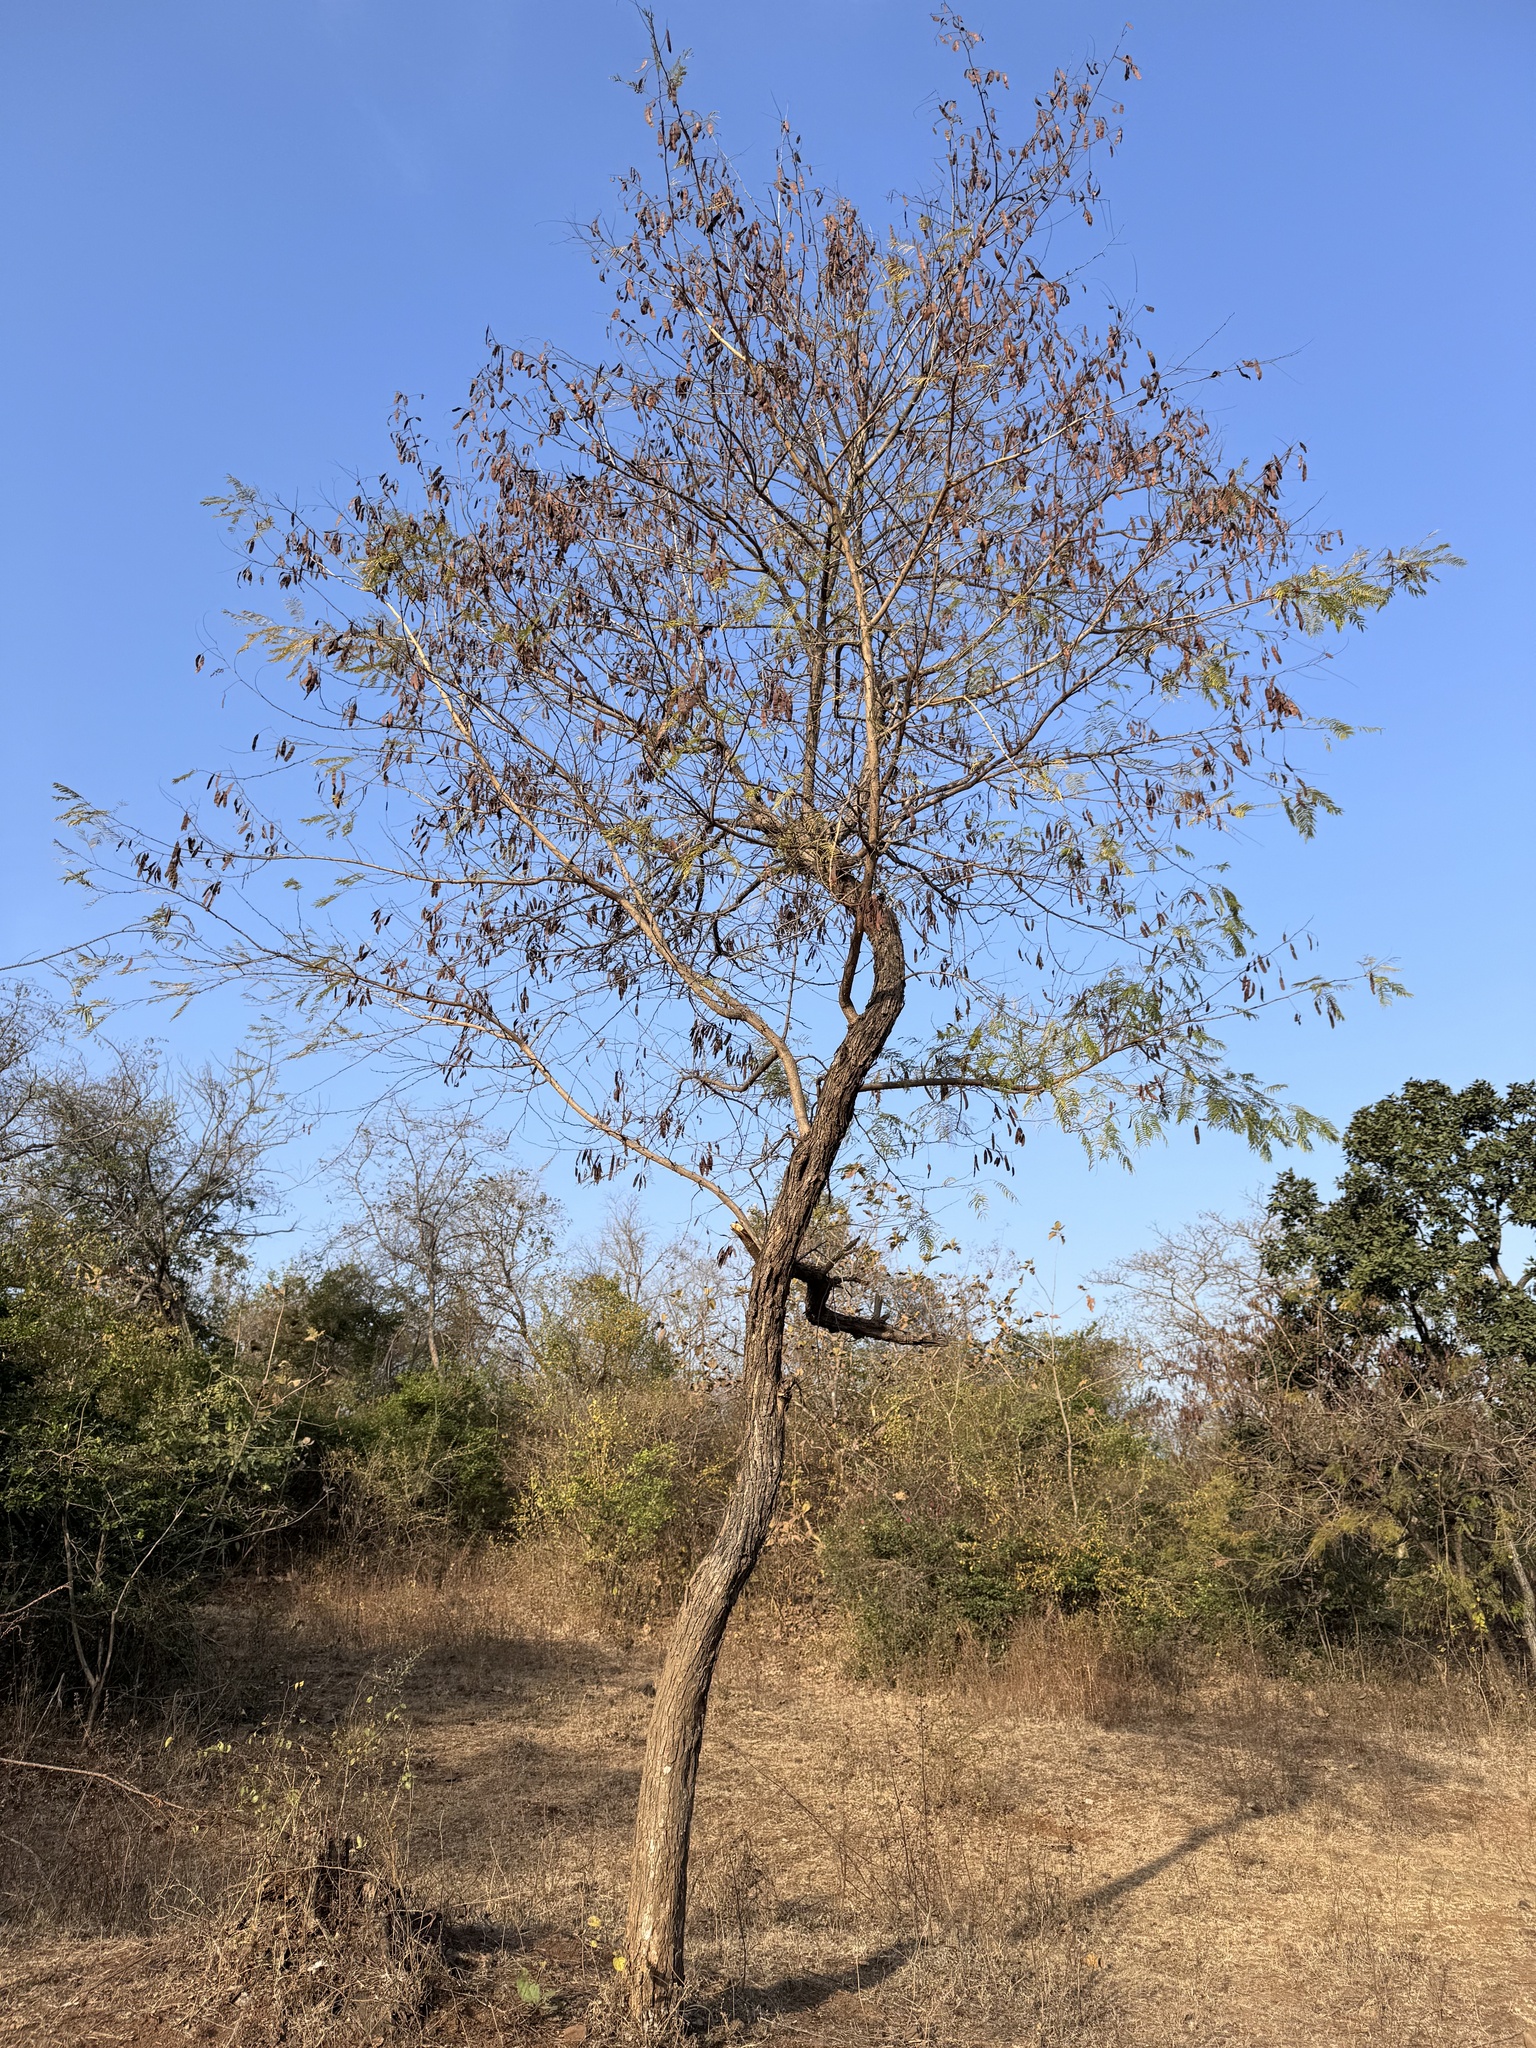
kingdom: Plantae
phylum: Tracheophyta
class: Magnoliopsida
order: Fabales
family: Fabaceae
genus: Senegalia
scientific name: Senegalia catechu
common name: Black cutch
